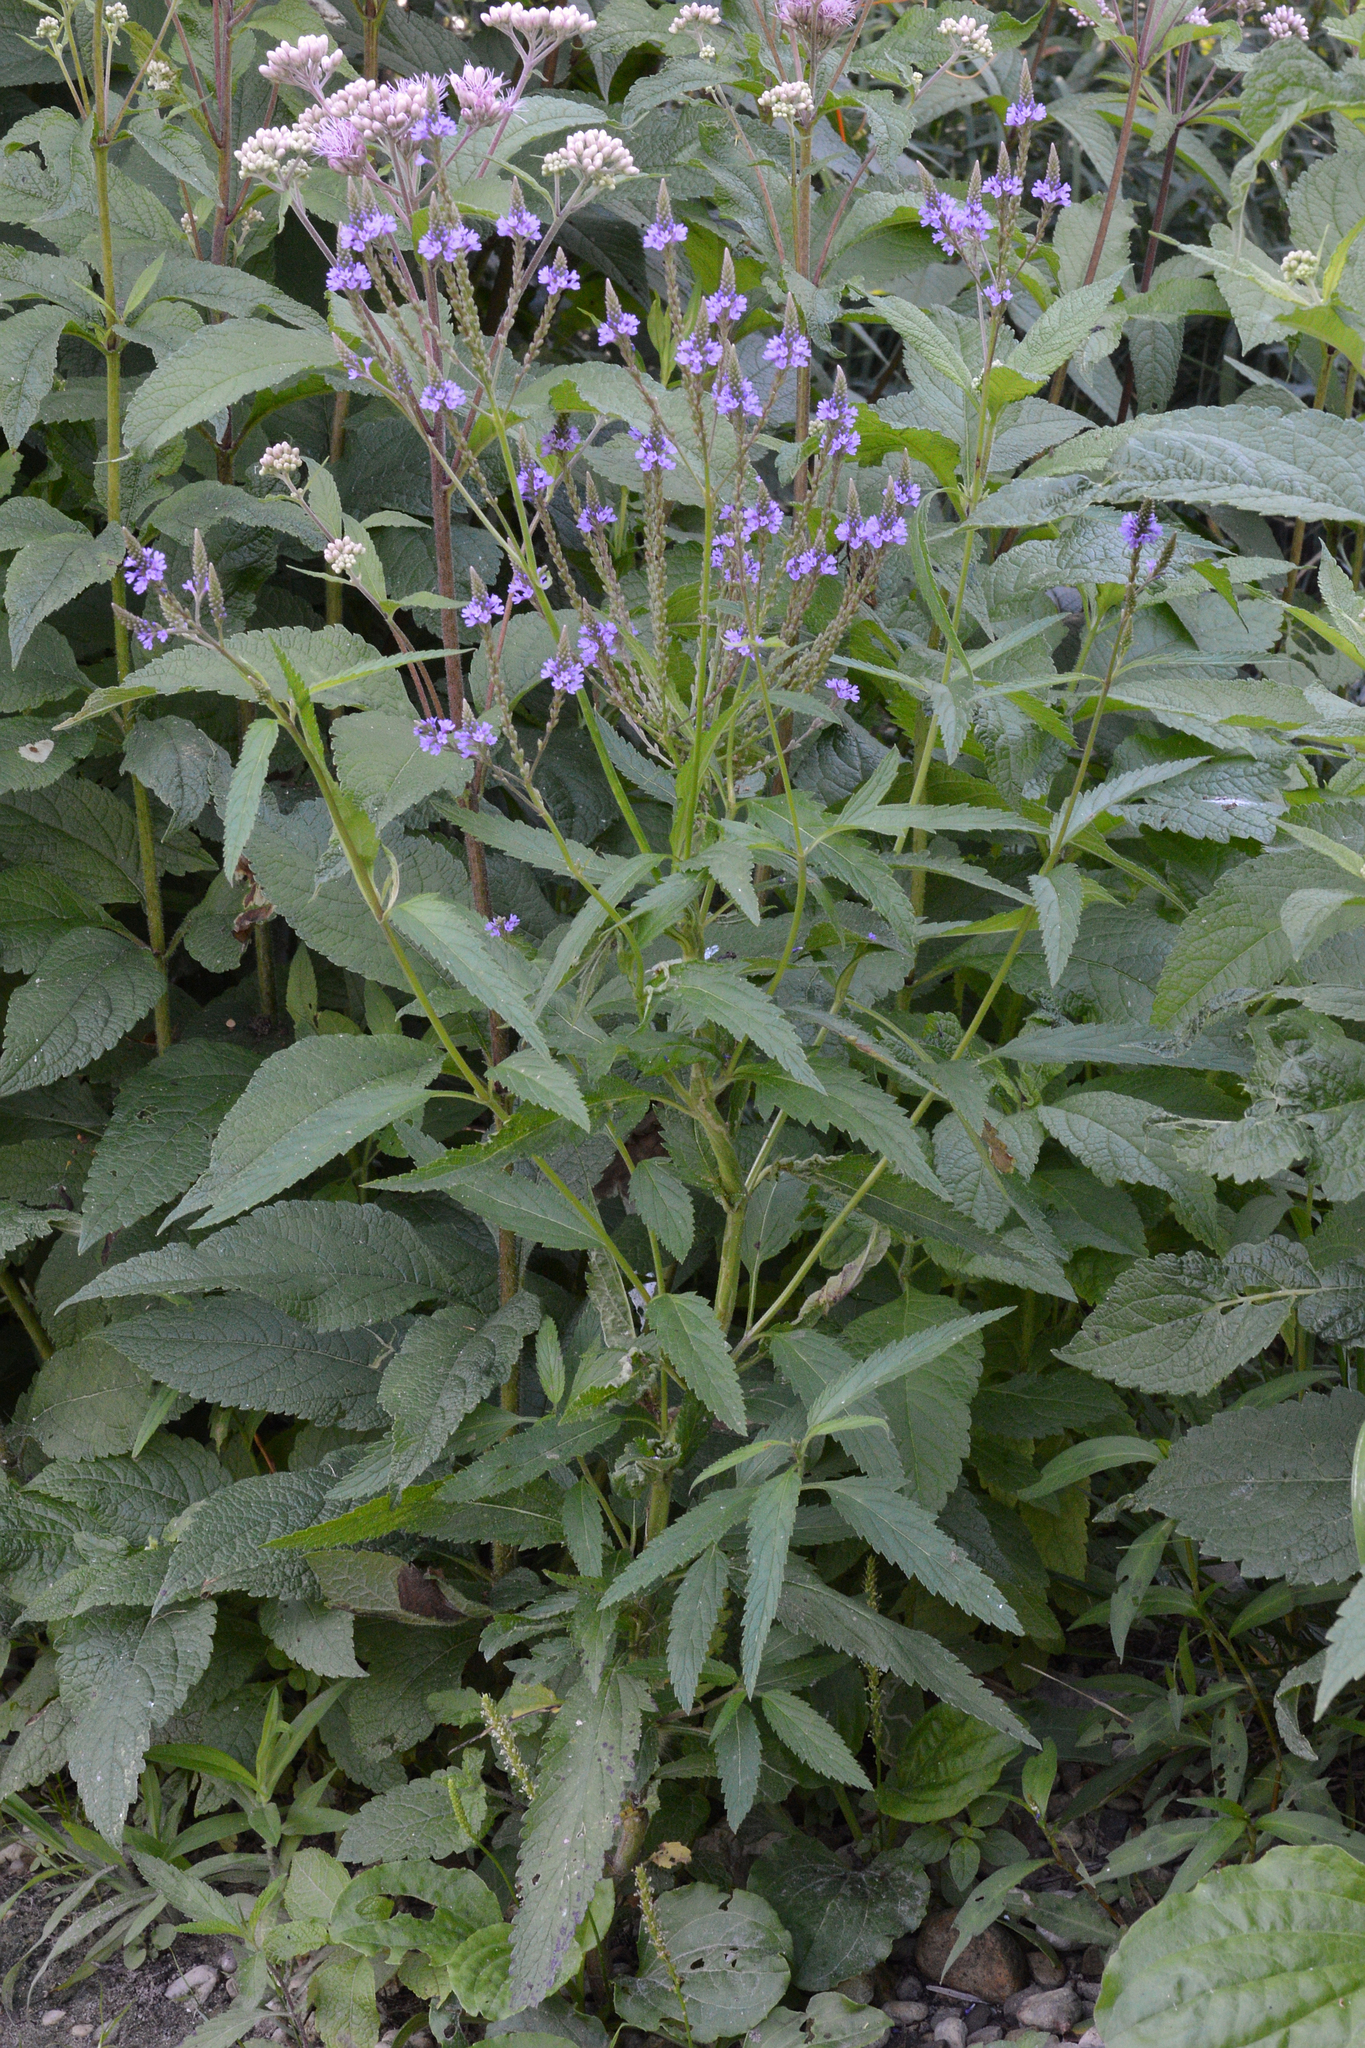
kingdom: Plantae
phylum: Tracheophyta
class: Magnoliopsida
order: Lamiales
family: Verbenaceae
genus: Verbena
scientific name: Verbena hastata
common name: American blue vervain
